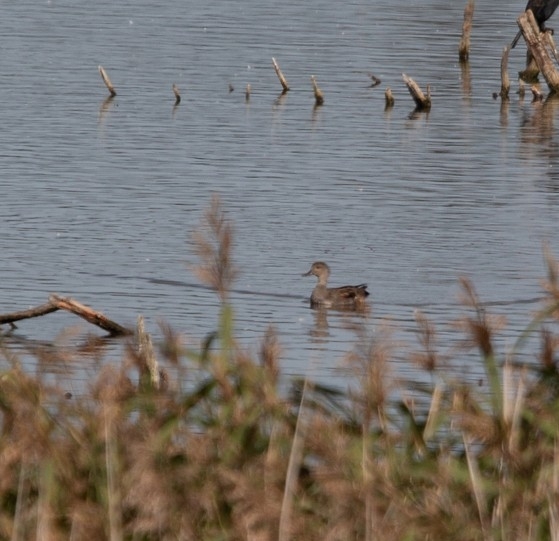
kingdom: Animalia
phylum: Chordata
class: Aves
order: Anseriformes
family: Anatidae
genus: Mareca
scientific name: Mareca strepera
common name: Gadwall
